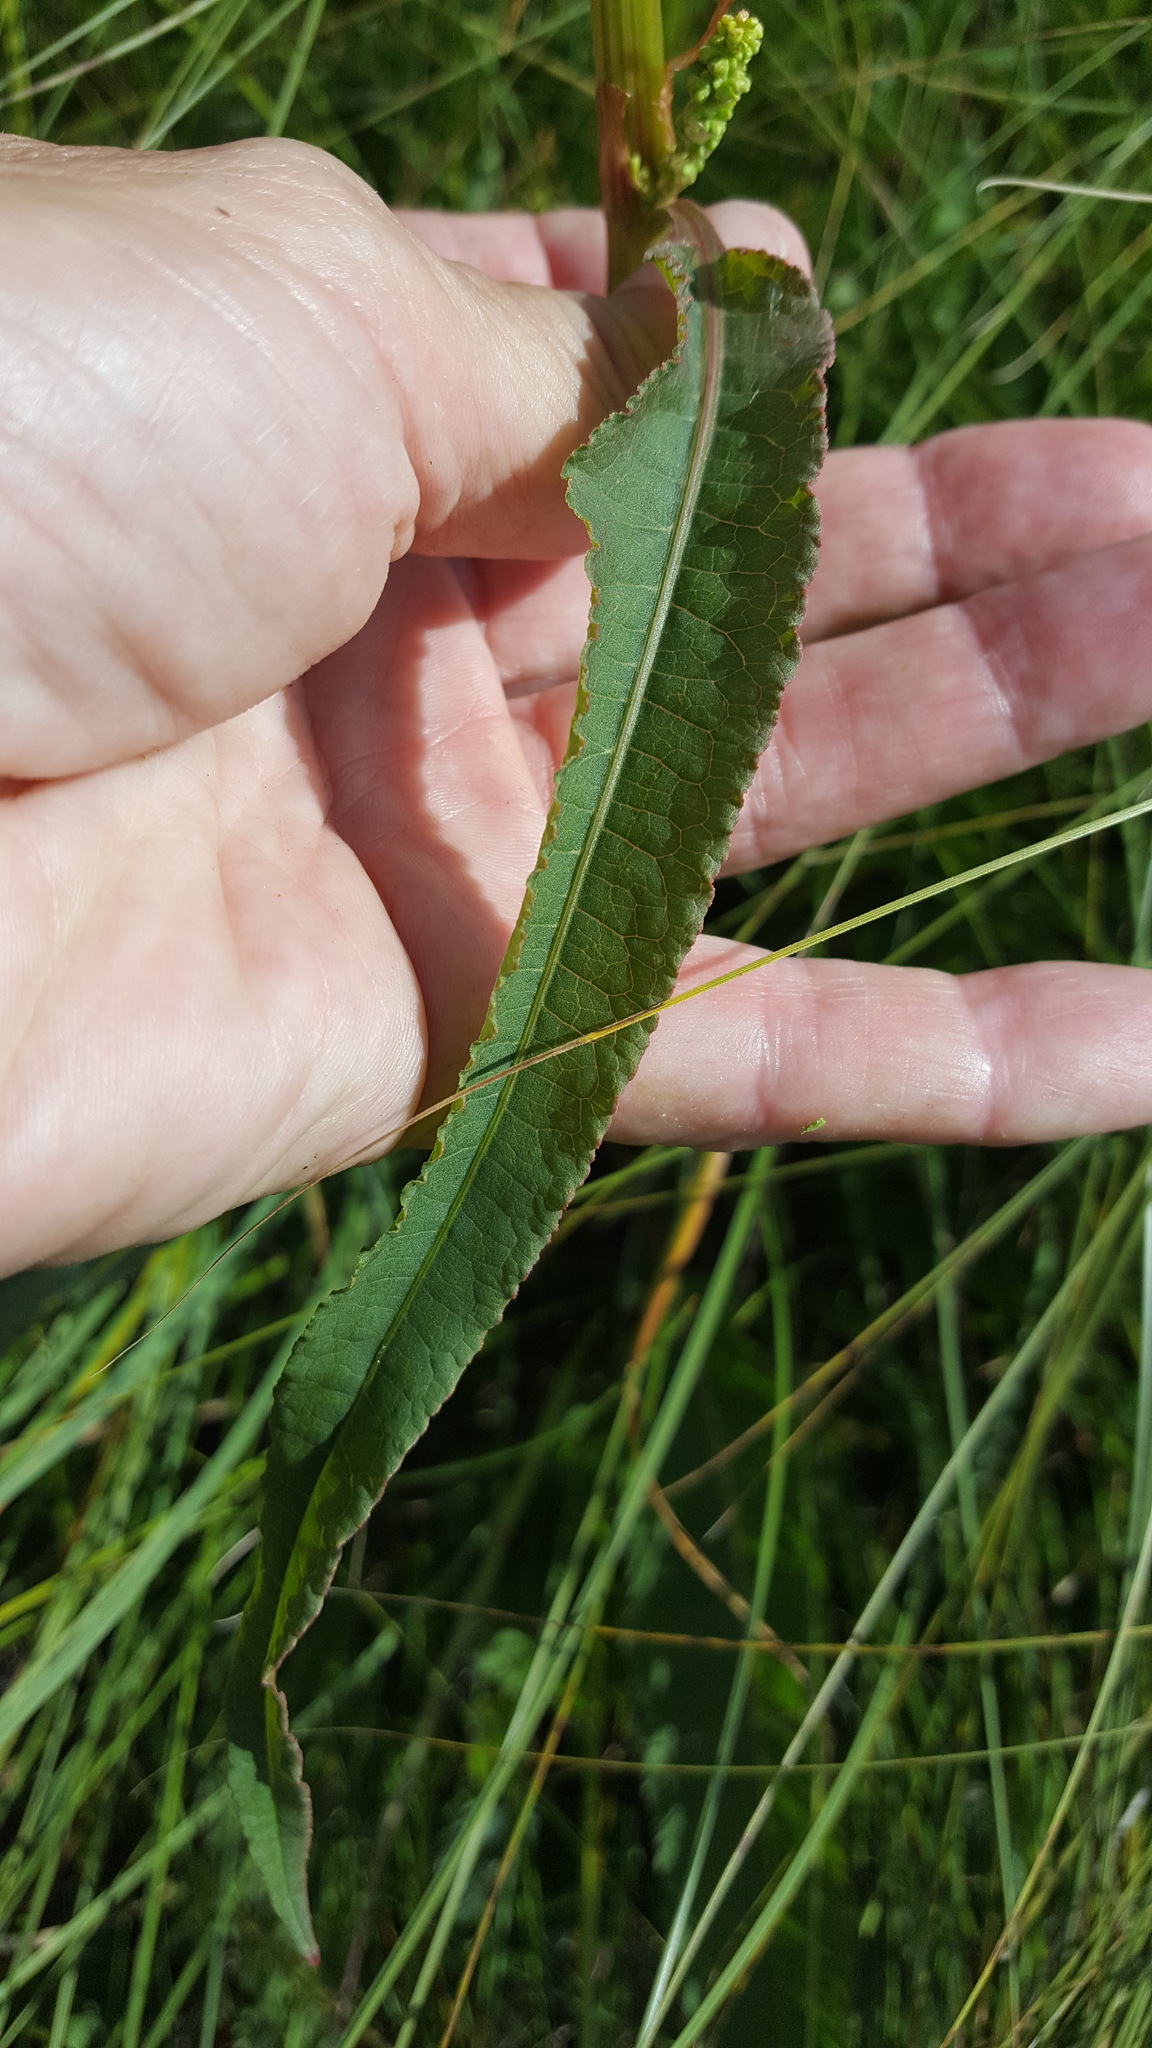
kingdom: Plantae
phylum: Tracheophyta
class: Magnoliopsida
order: Caryophyllales
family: Polygonaceae
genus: Rumex
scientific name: Rumex britannica
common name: British dock
